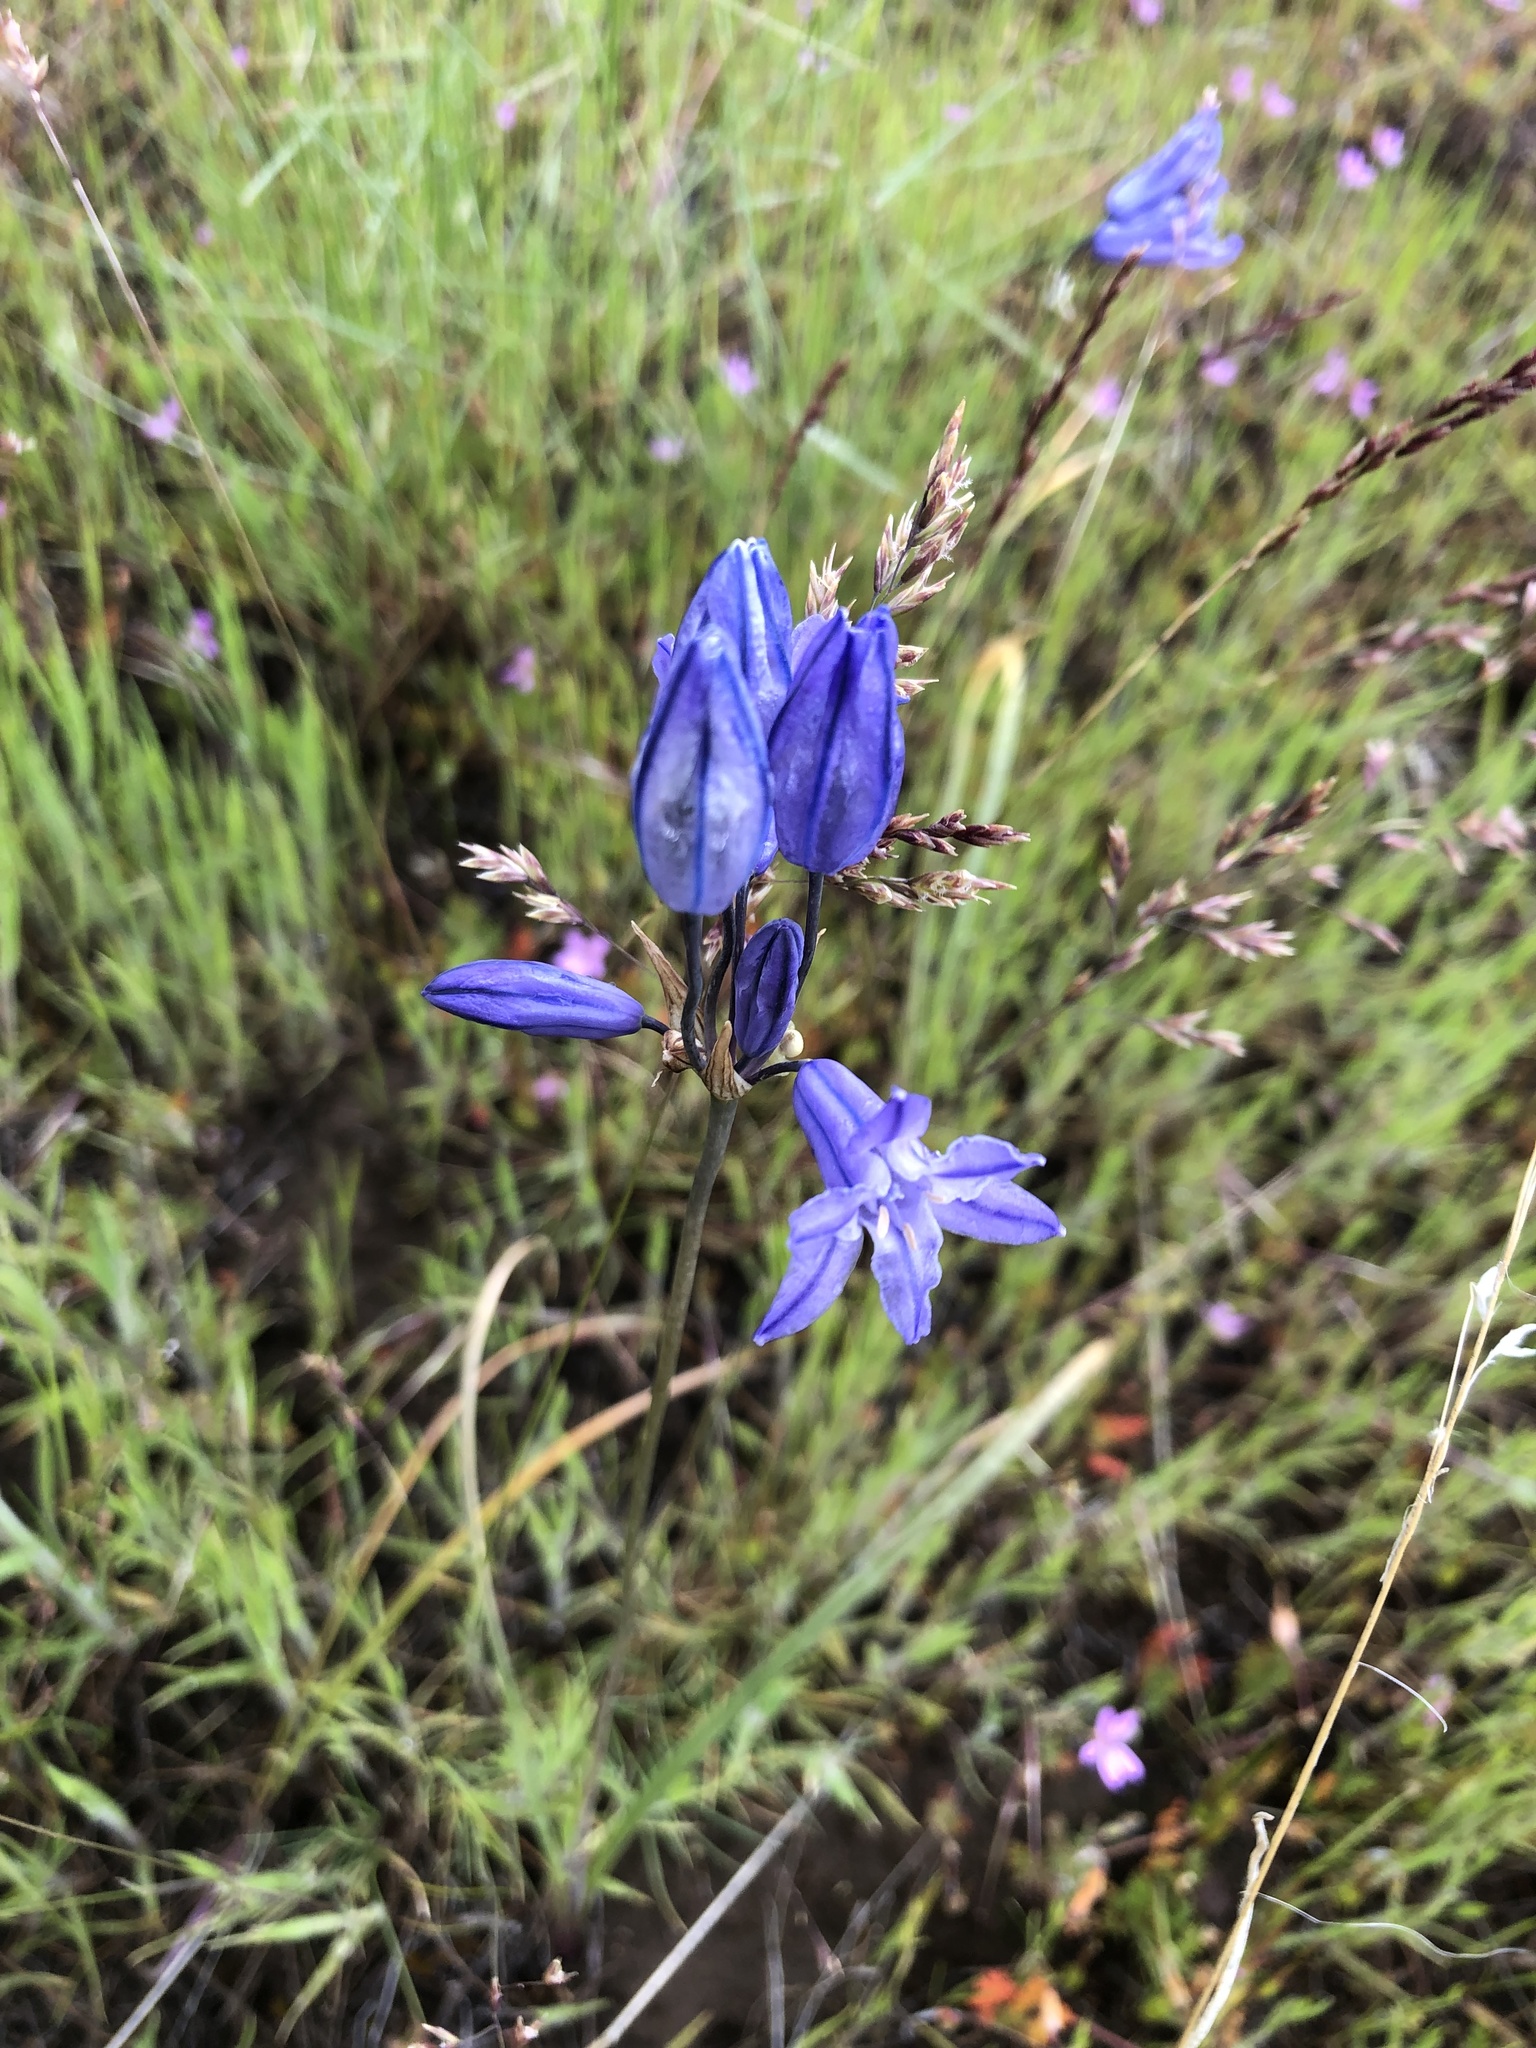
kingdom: Plantae
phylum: Tracheophyta
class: Liliopsida
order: Asparagales
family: Asparagaceae
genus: Triteleia
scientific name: Triteleia grandiflora
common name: Wild hyacinth
